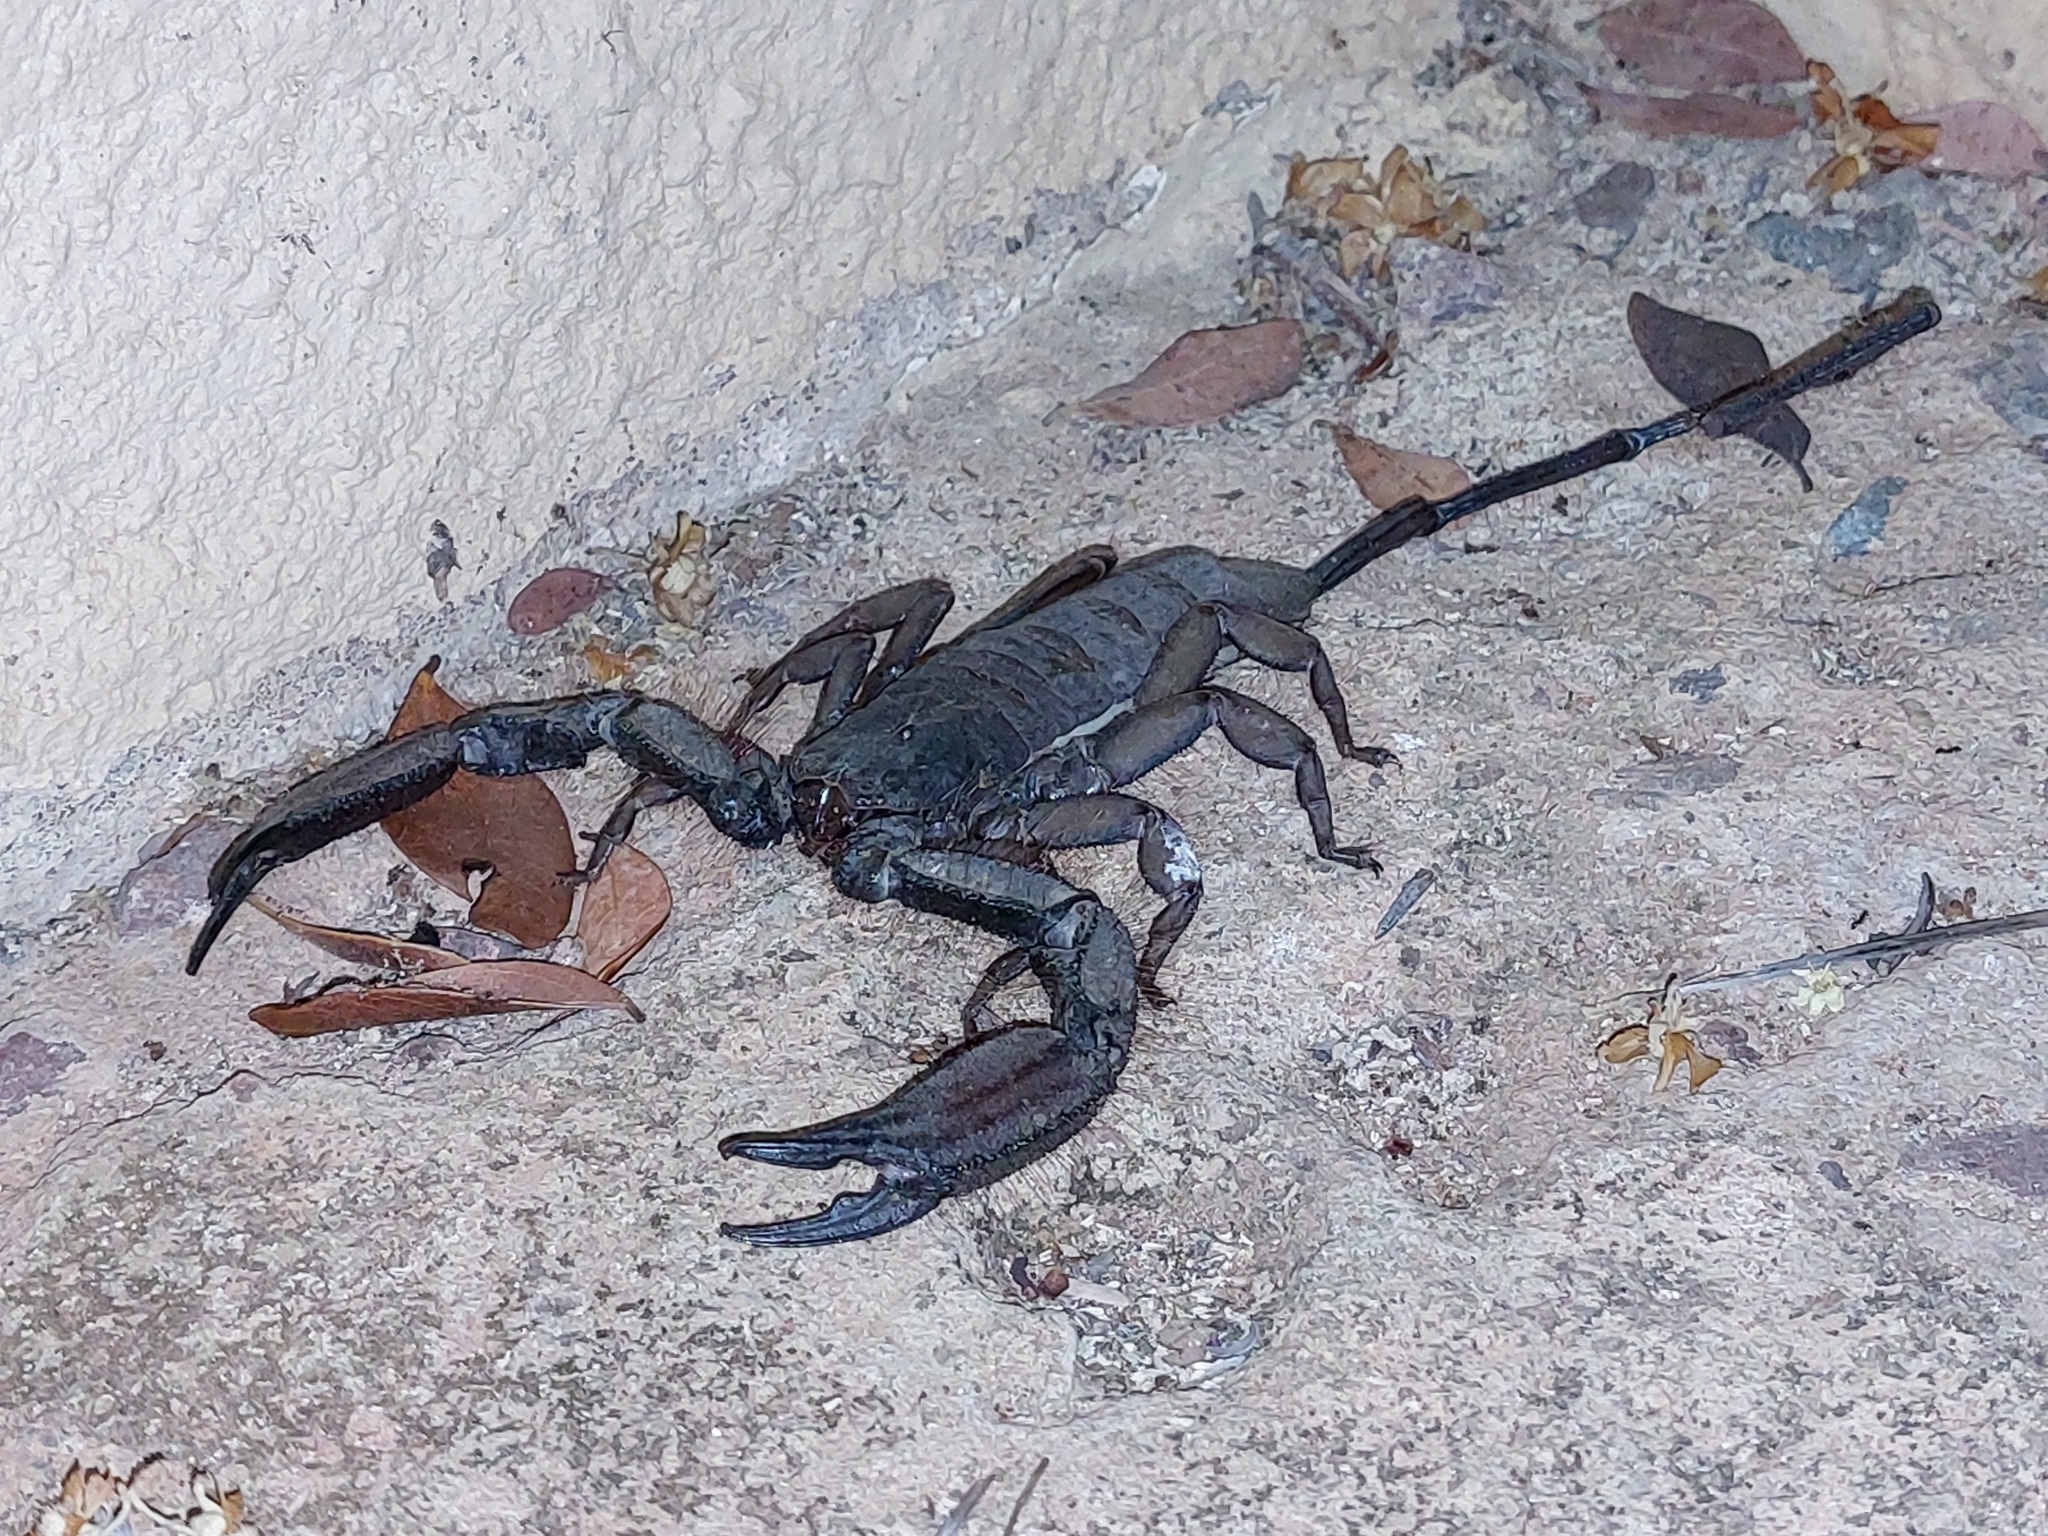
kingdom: Animalia
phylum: Arthropoda
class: Arachnida
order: Scorpiones
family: Hormuridae
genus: Hadogenes
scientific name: Hadogenes troglodytes
